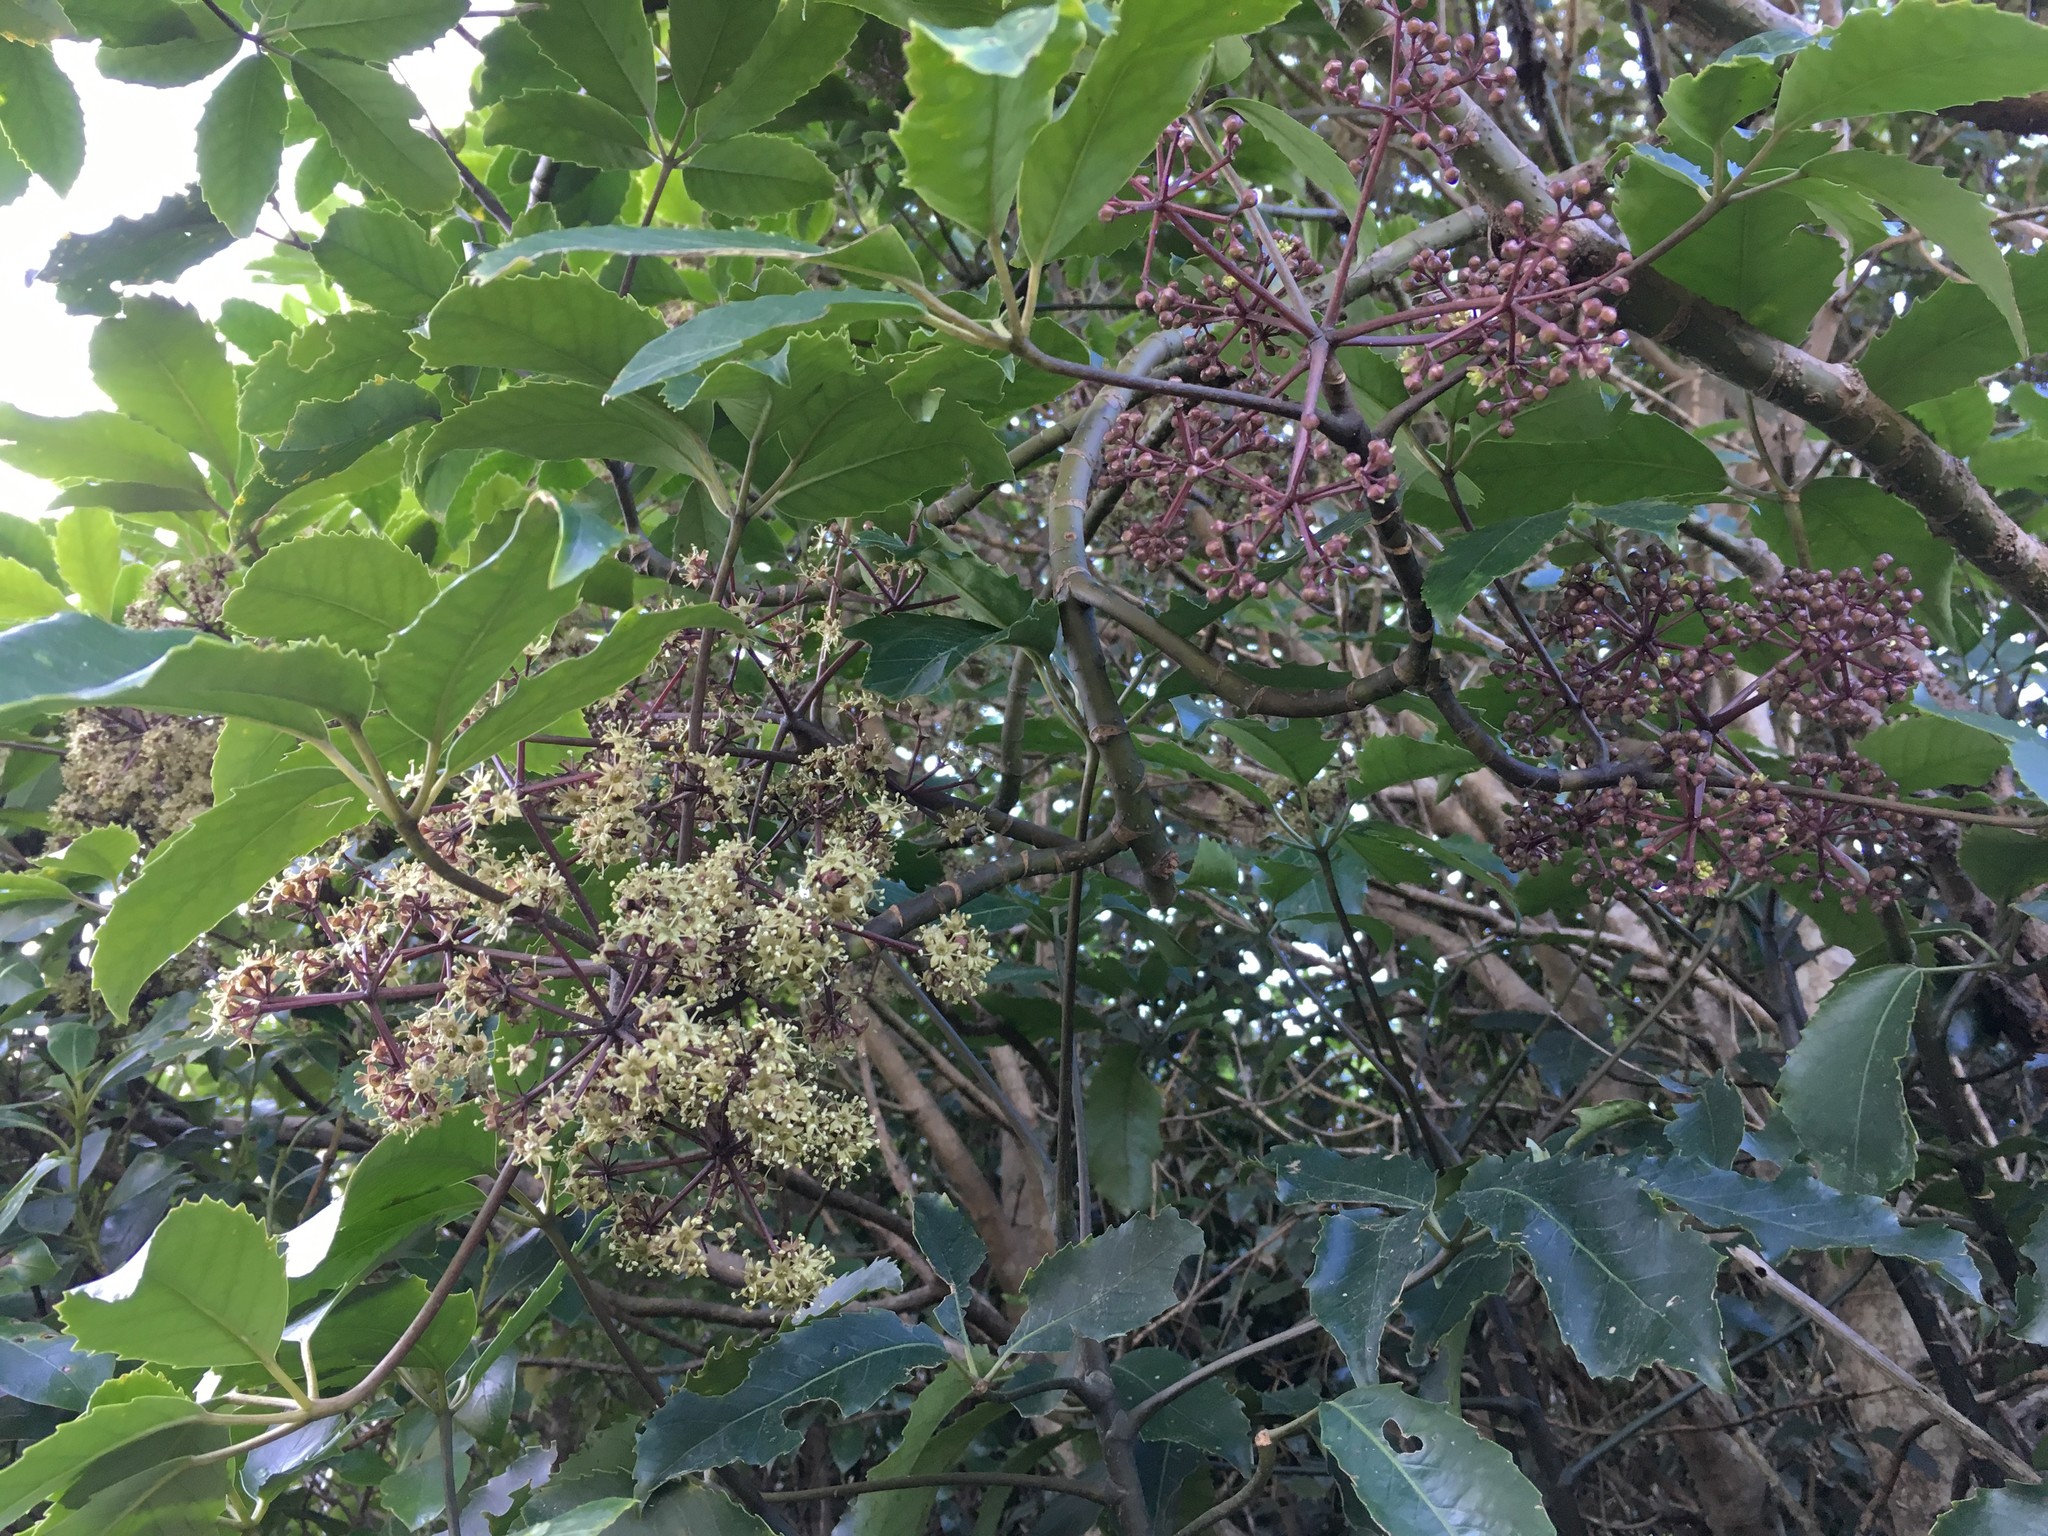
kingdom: Plantae
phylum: Tracheophyta
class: Magnoliopsida
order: Apiales
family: Araliaceae
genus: Neopanax
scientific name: Neopanax arboreus
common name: Five-fingers
